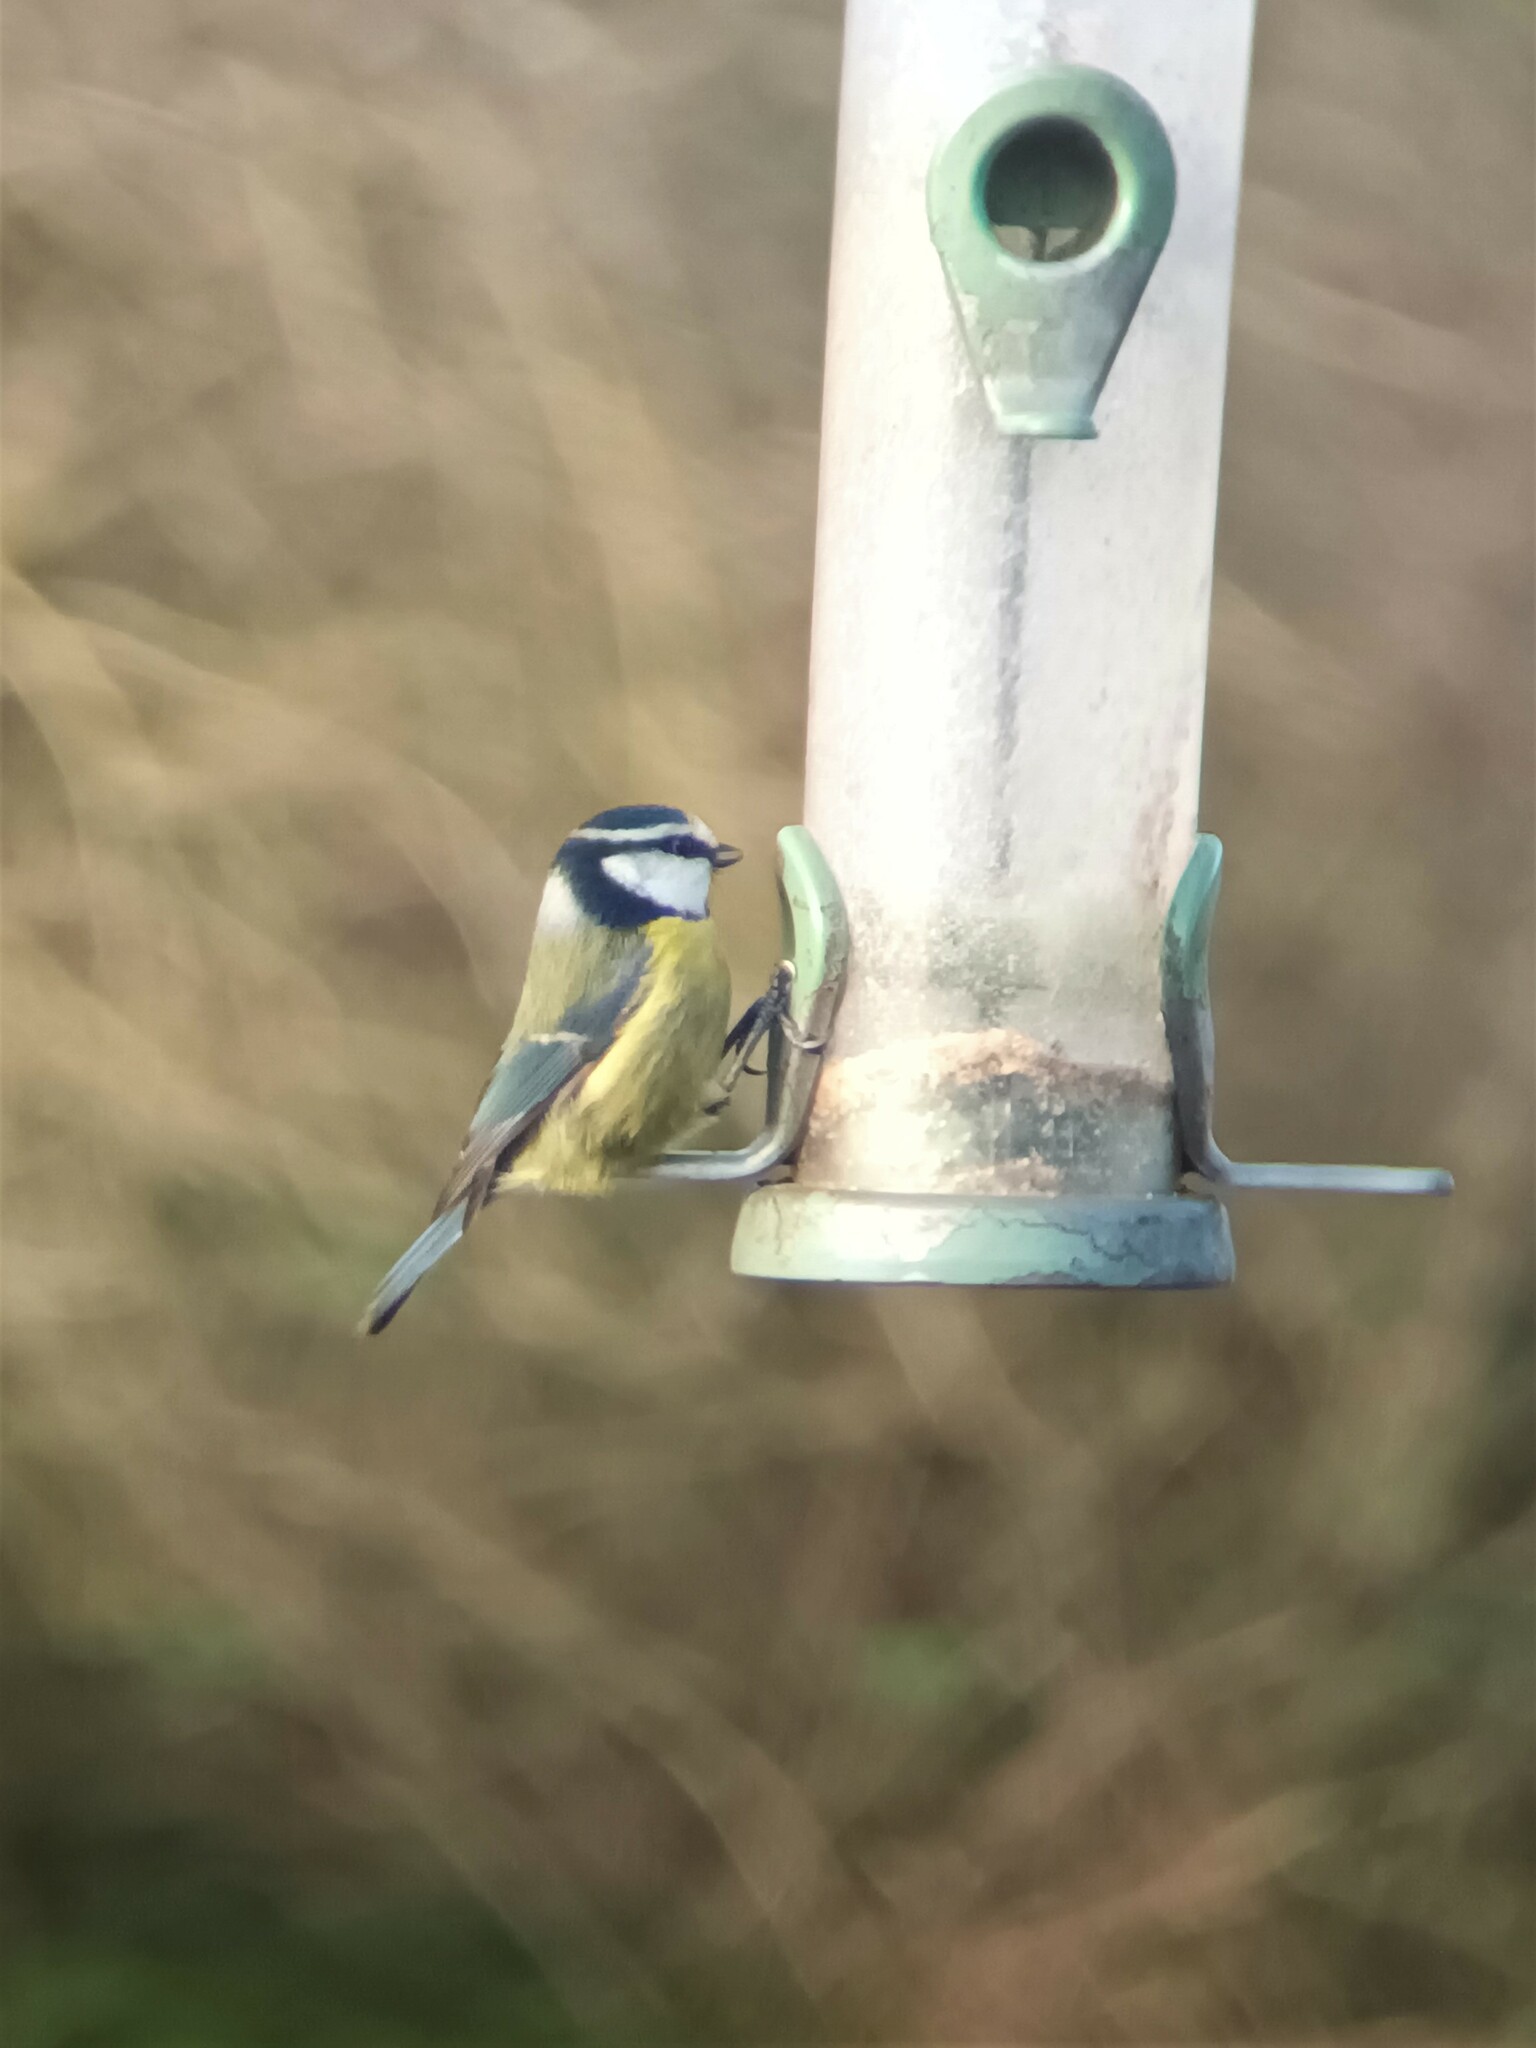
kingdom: Animalia
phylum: Chordata
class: Aves
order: Passeriformes
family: Paridae
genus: Cyanistes
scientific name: Cyanistes caeruleus
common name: Eurasian blue tit
